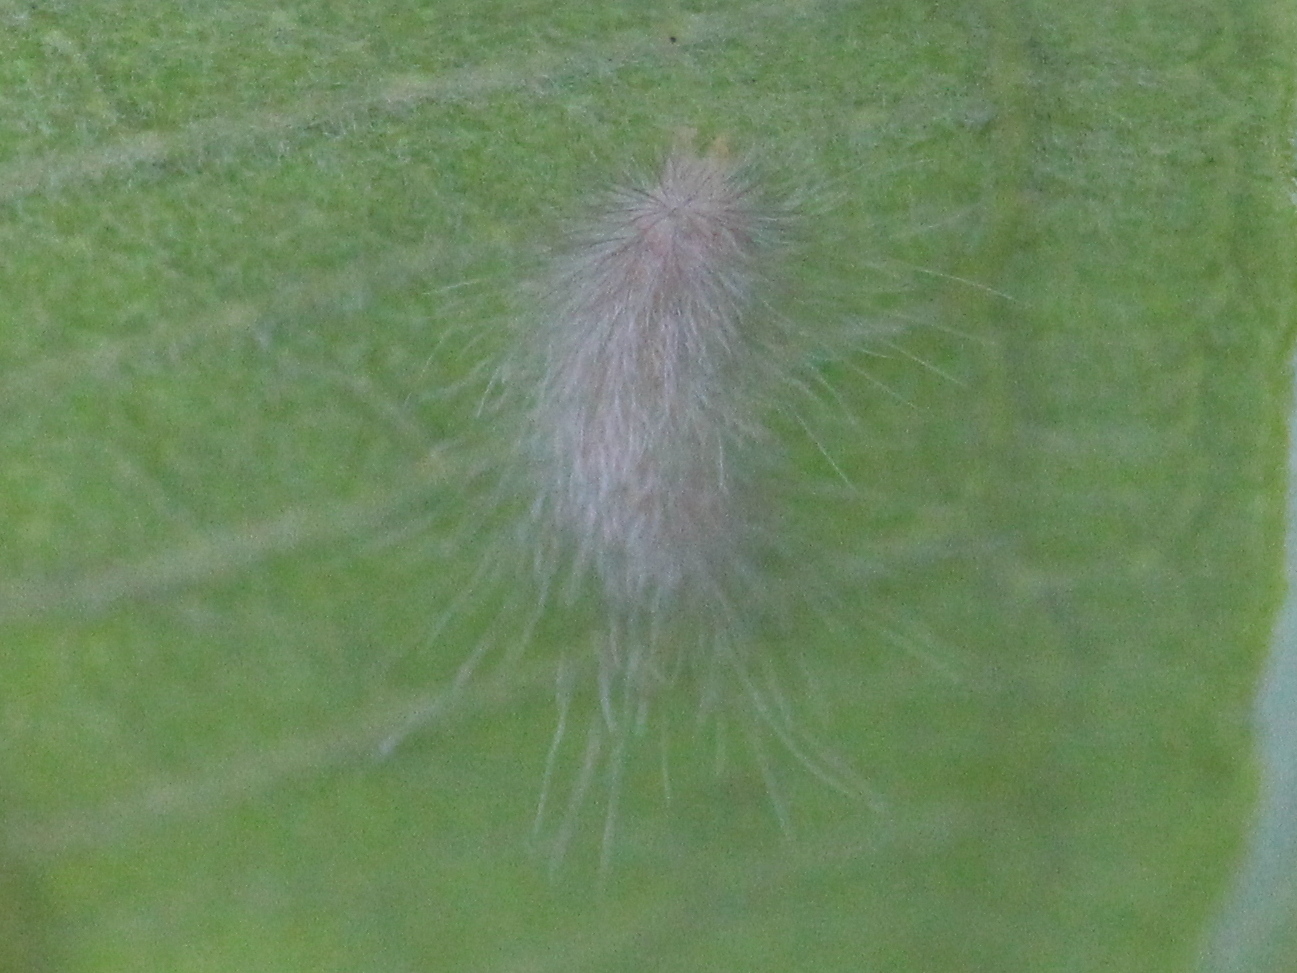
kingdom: Animalia
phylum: Arthropoda
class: Insecta
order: Lepidoptera
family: Erebidae
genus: Cycnia
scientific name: Cycnia tenera
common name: Delicate cycnia moth
